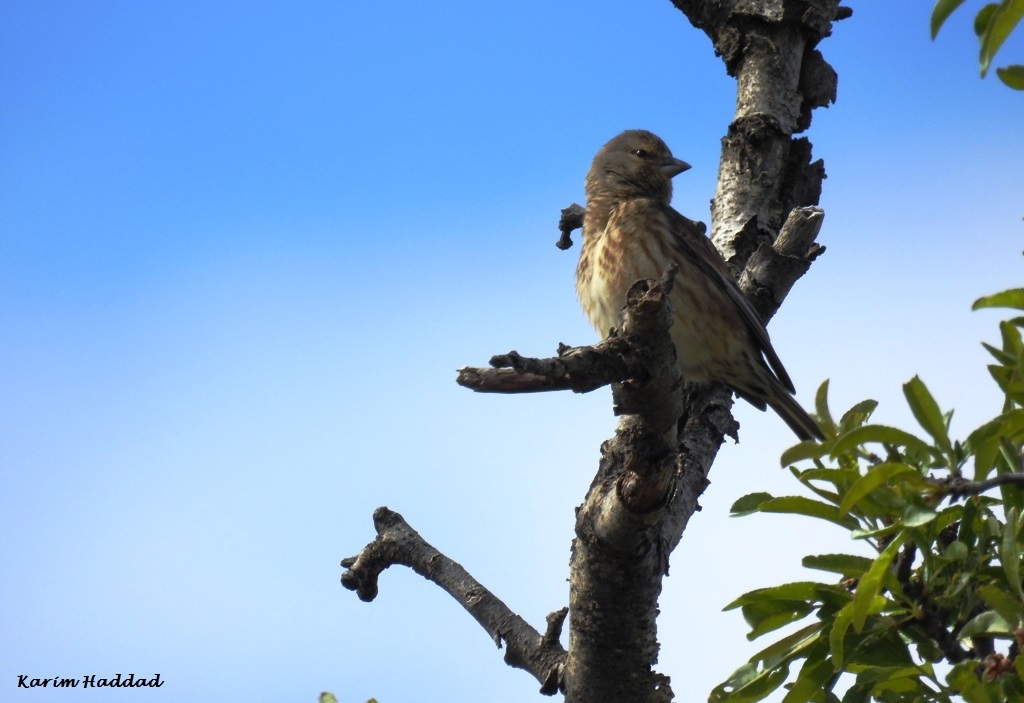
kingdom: Animalia
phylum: Chordata
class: Aves
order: Passeriformes
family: Fringillidae
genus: Linaria
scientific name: Linaria cannabina
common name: Common linnet
